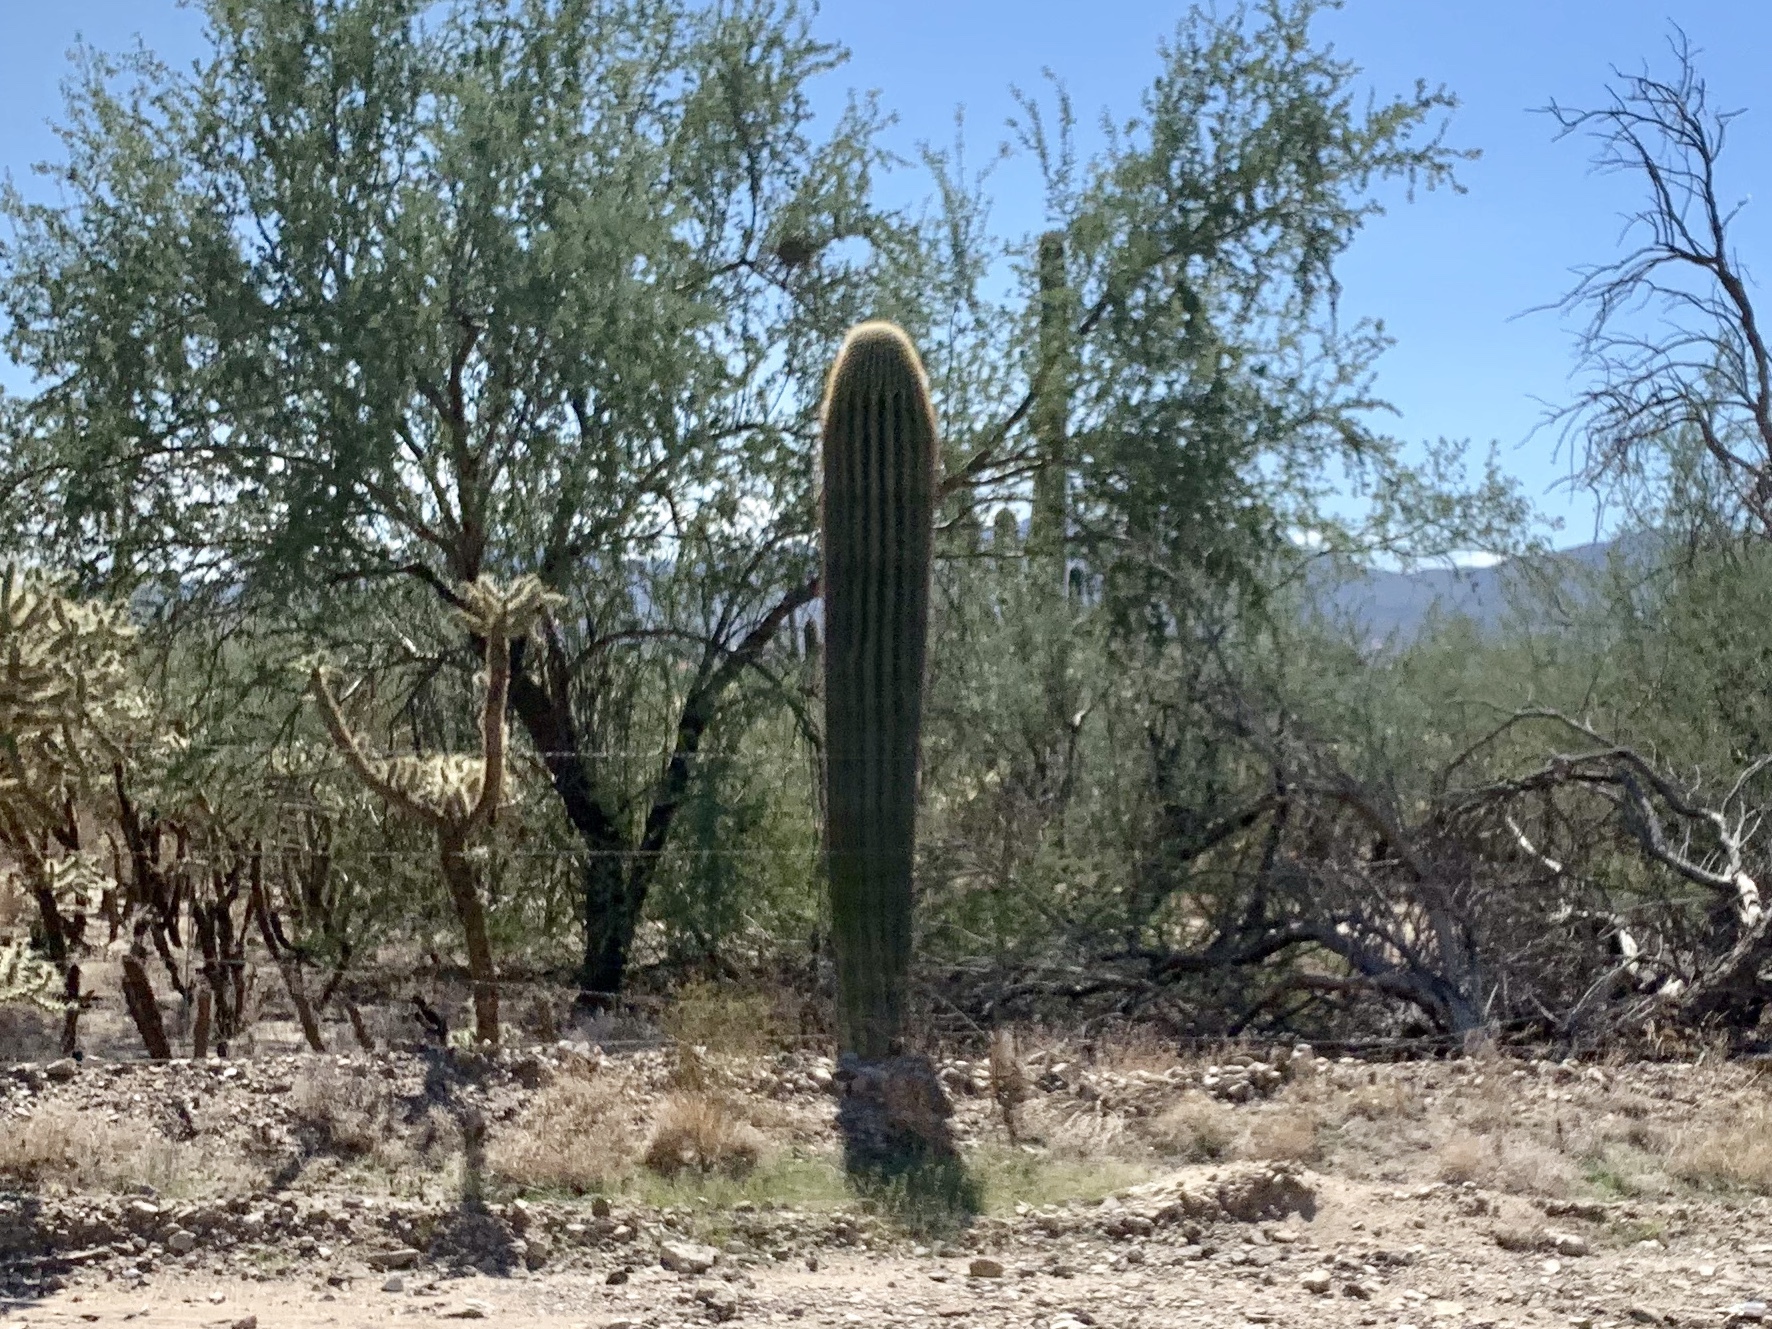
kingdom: Plantae
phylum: Tracheophyta
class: Magnoliopsida
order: Caryophyllales
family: Cactaceae
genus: Carnegiea
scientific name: Carnegiea gigantea
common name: Saguaro
